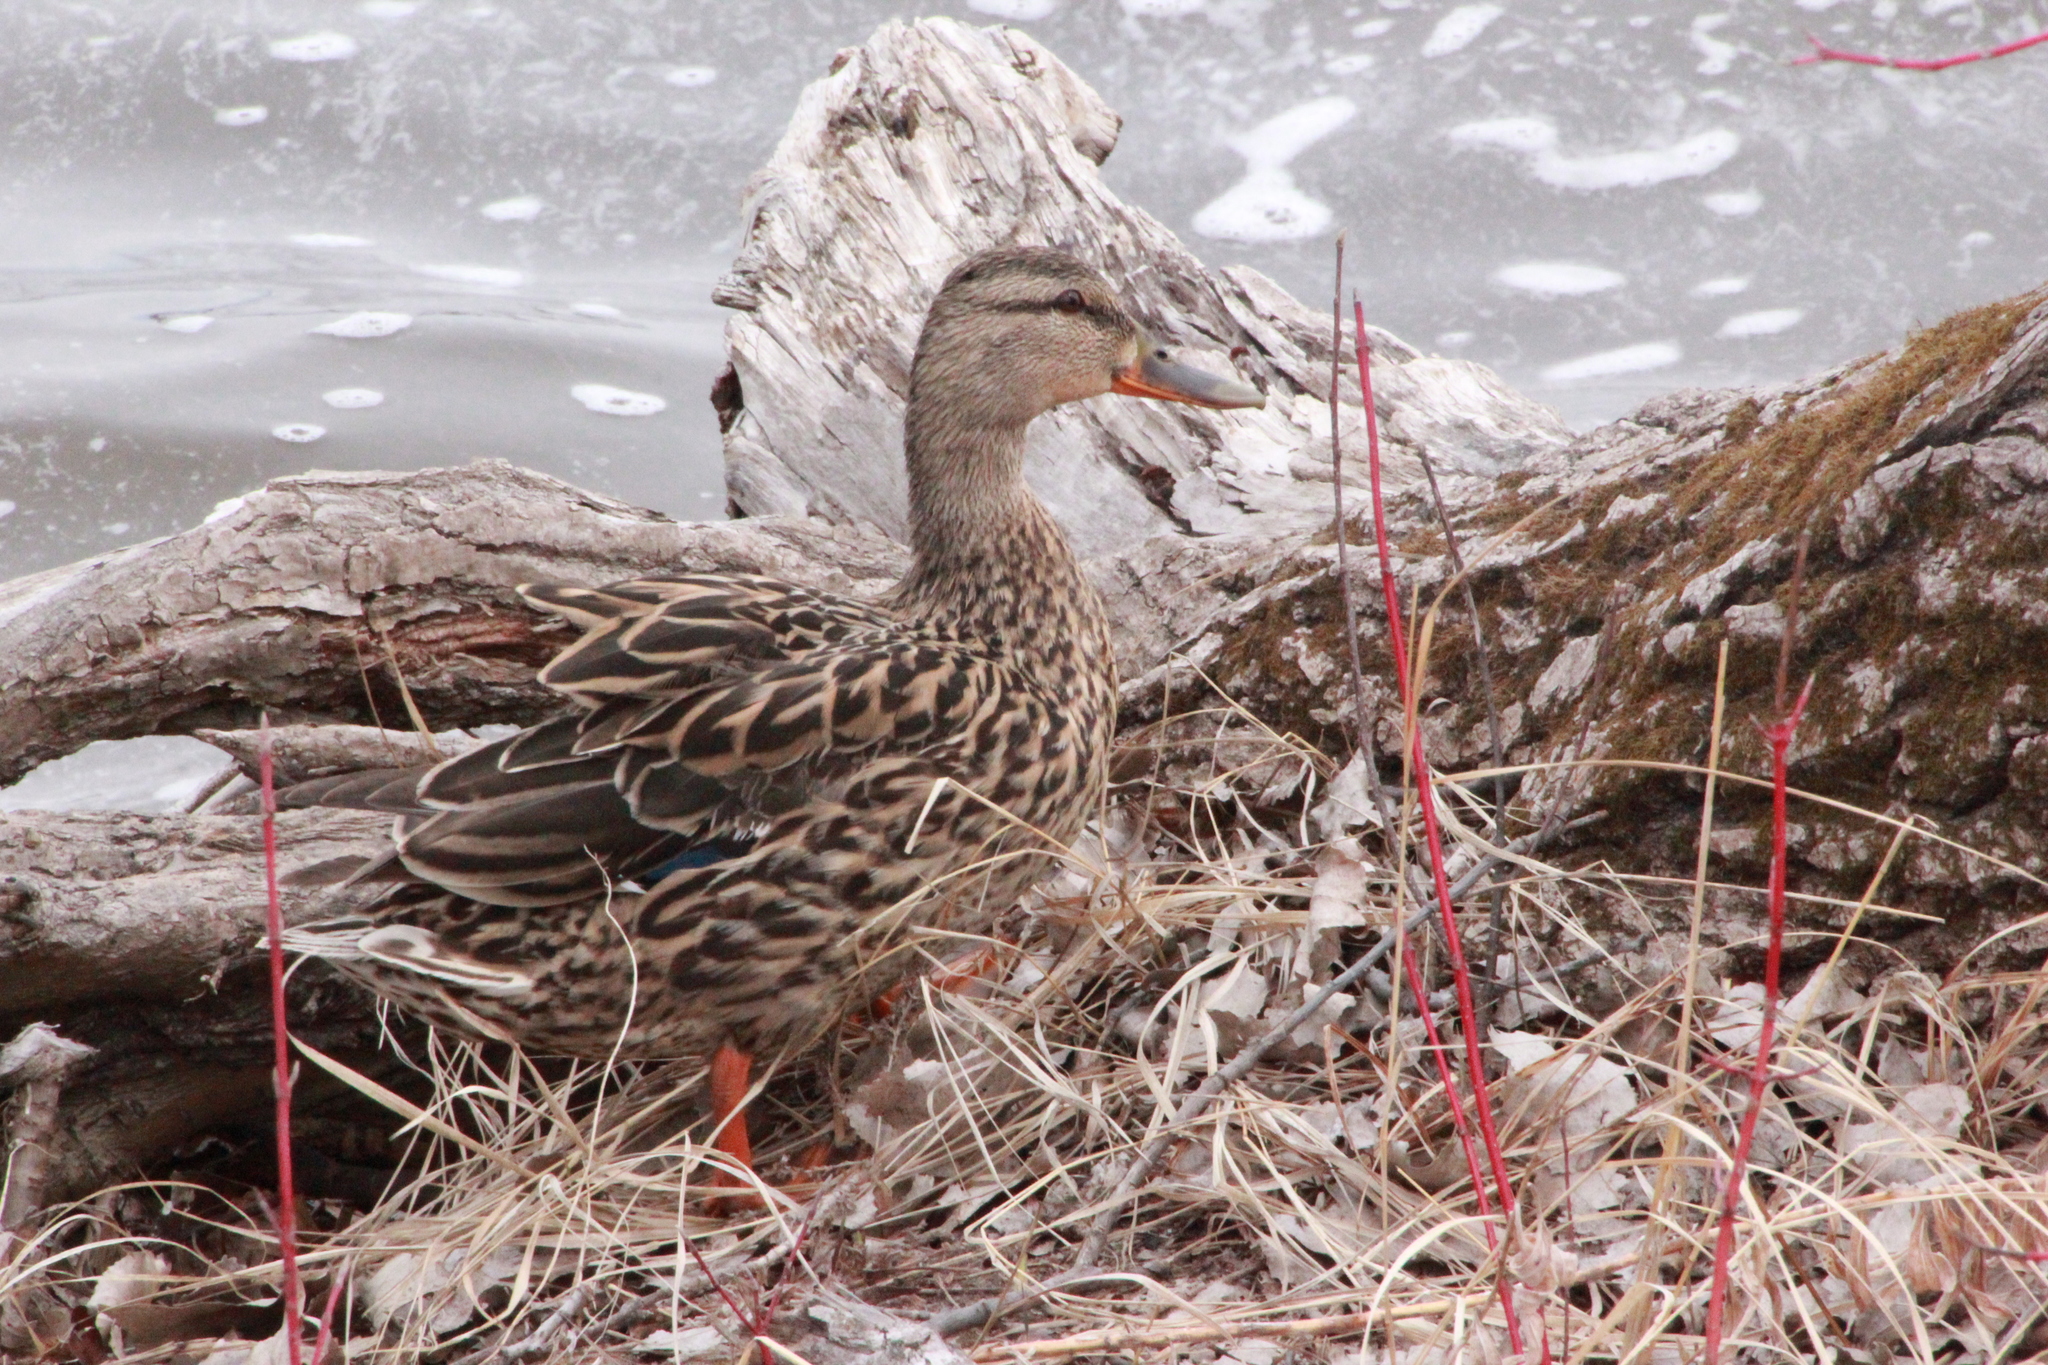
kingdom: Animalia
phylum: Chordata
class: Aves
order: Anseriformes
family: Anatidae
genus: Anas
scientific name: Anas platyrhynchos
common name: Mallard
